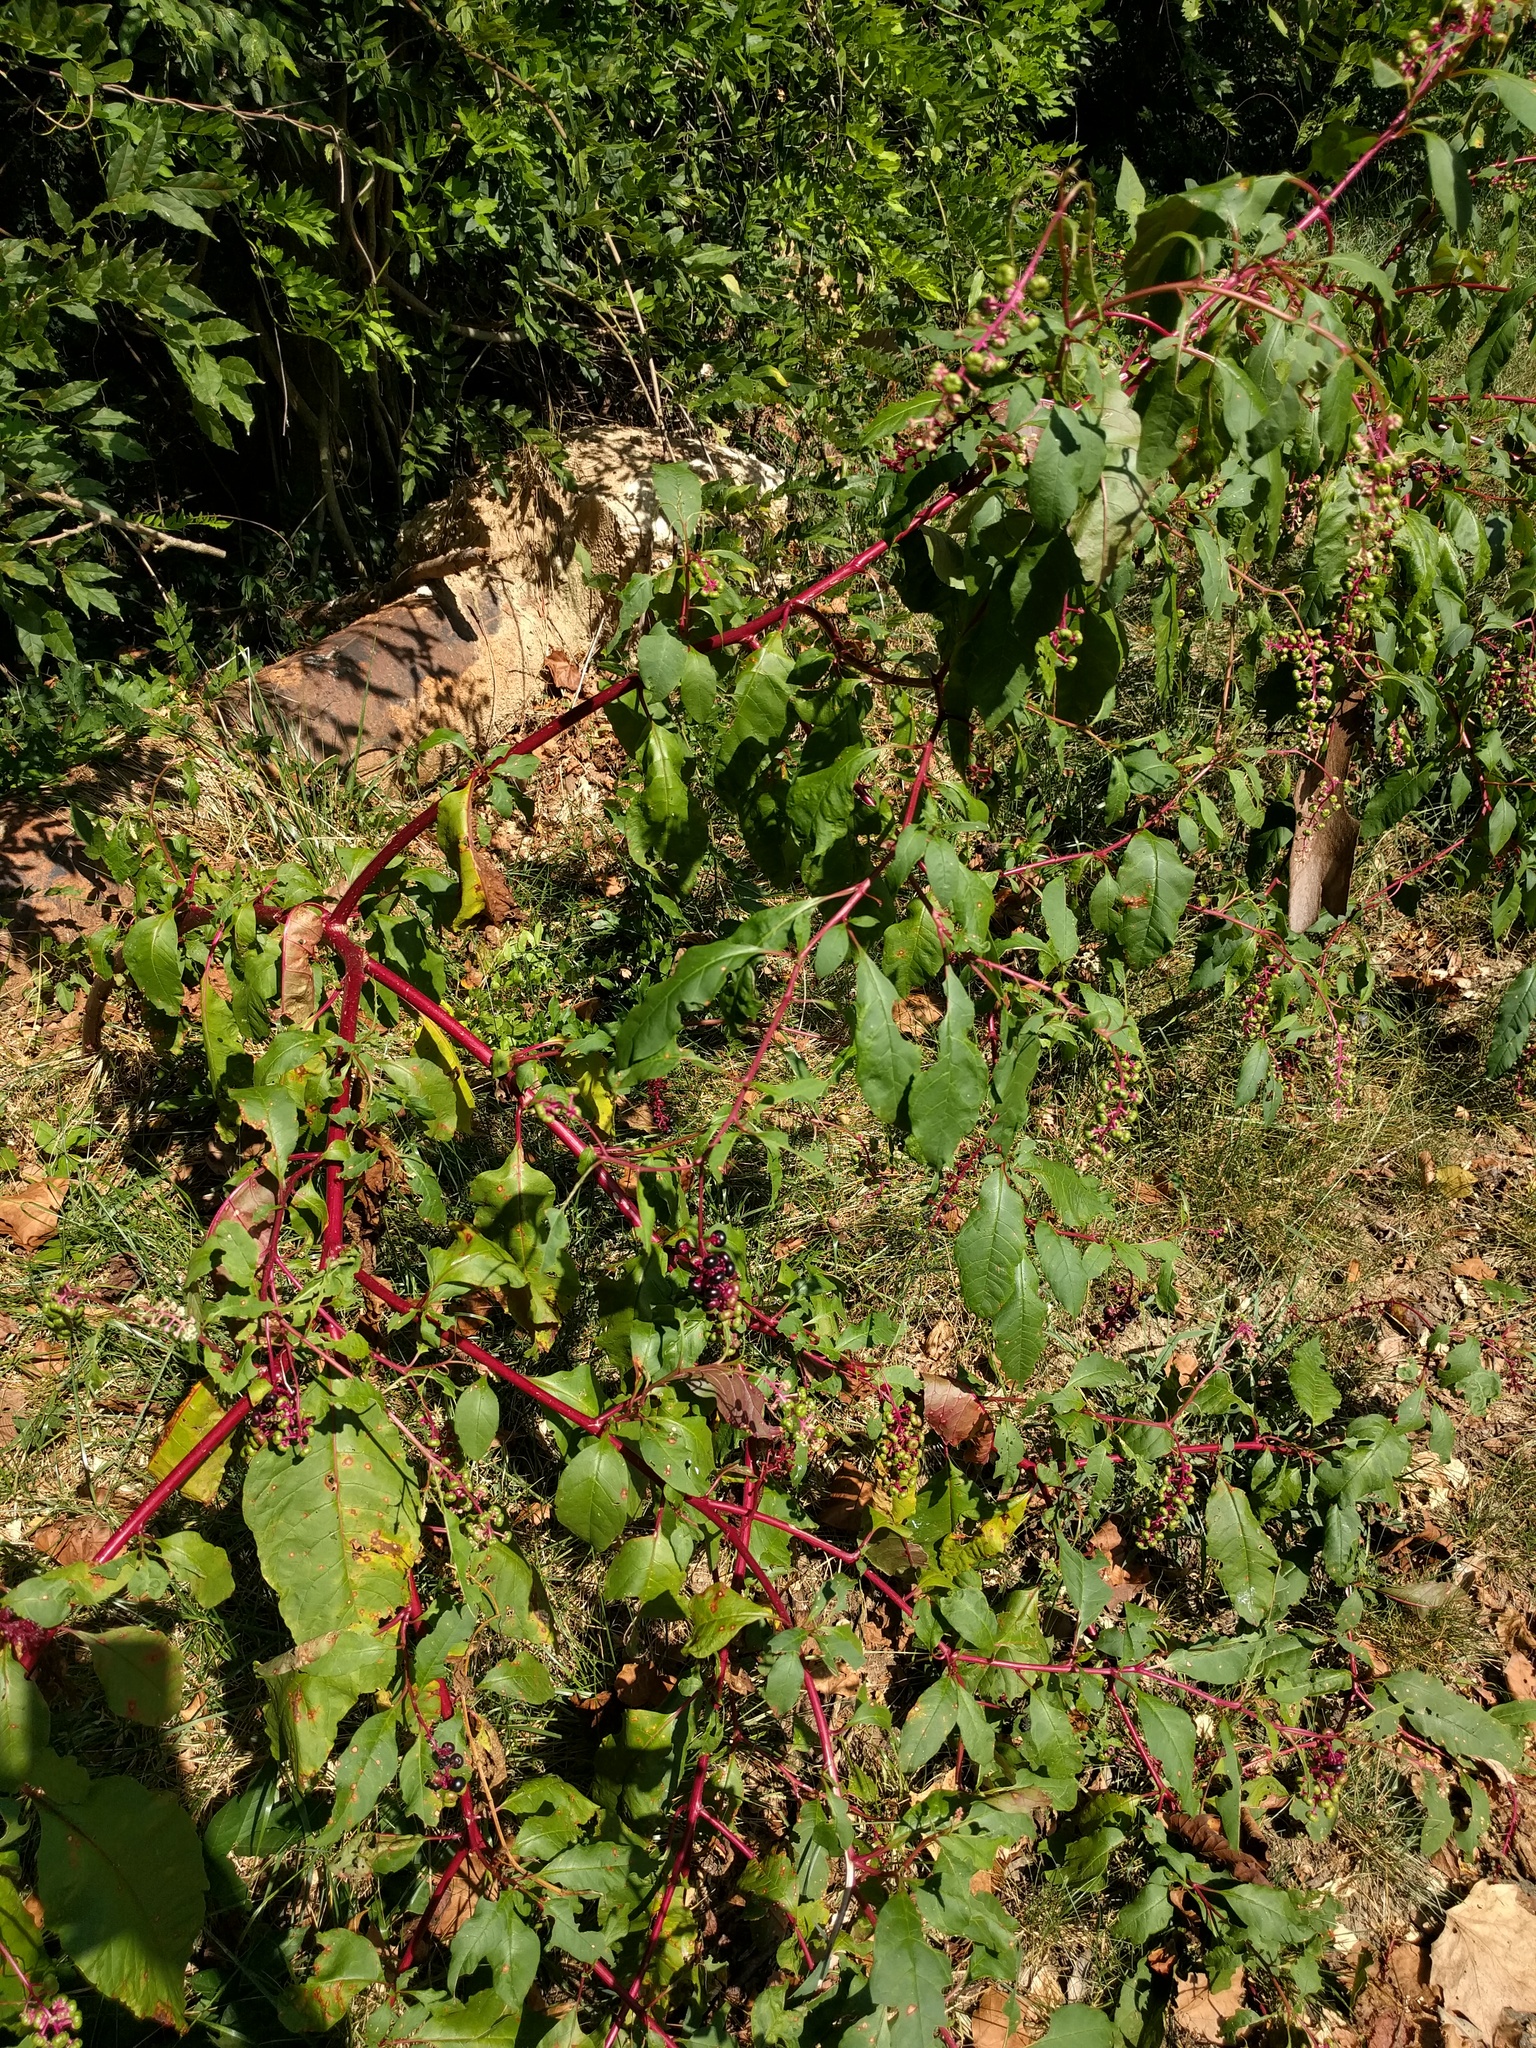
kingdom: Plantae
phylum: Tracheophyta
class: Magnoliopsida
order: Caryophyllales
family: Phytolaccaceae
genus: Phytolacca
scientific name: Phytolacca americana
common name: American pokeweed
